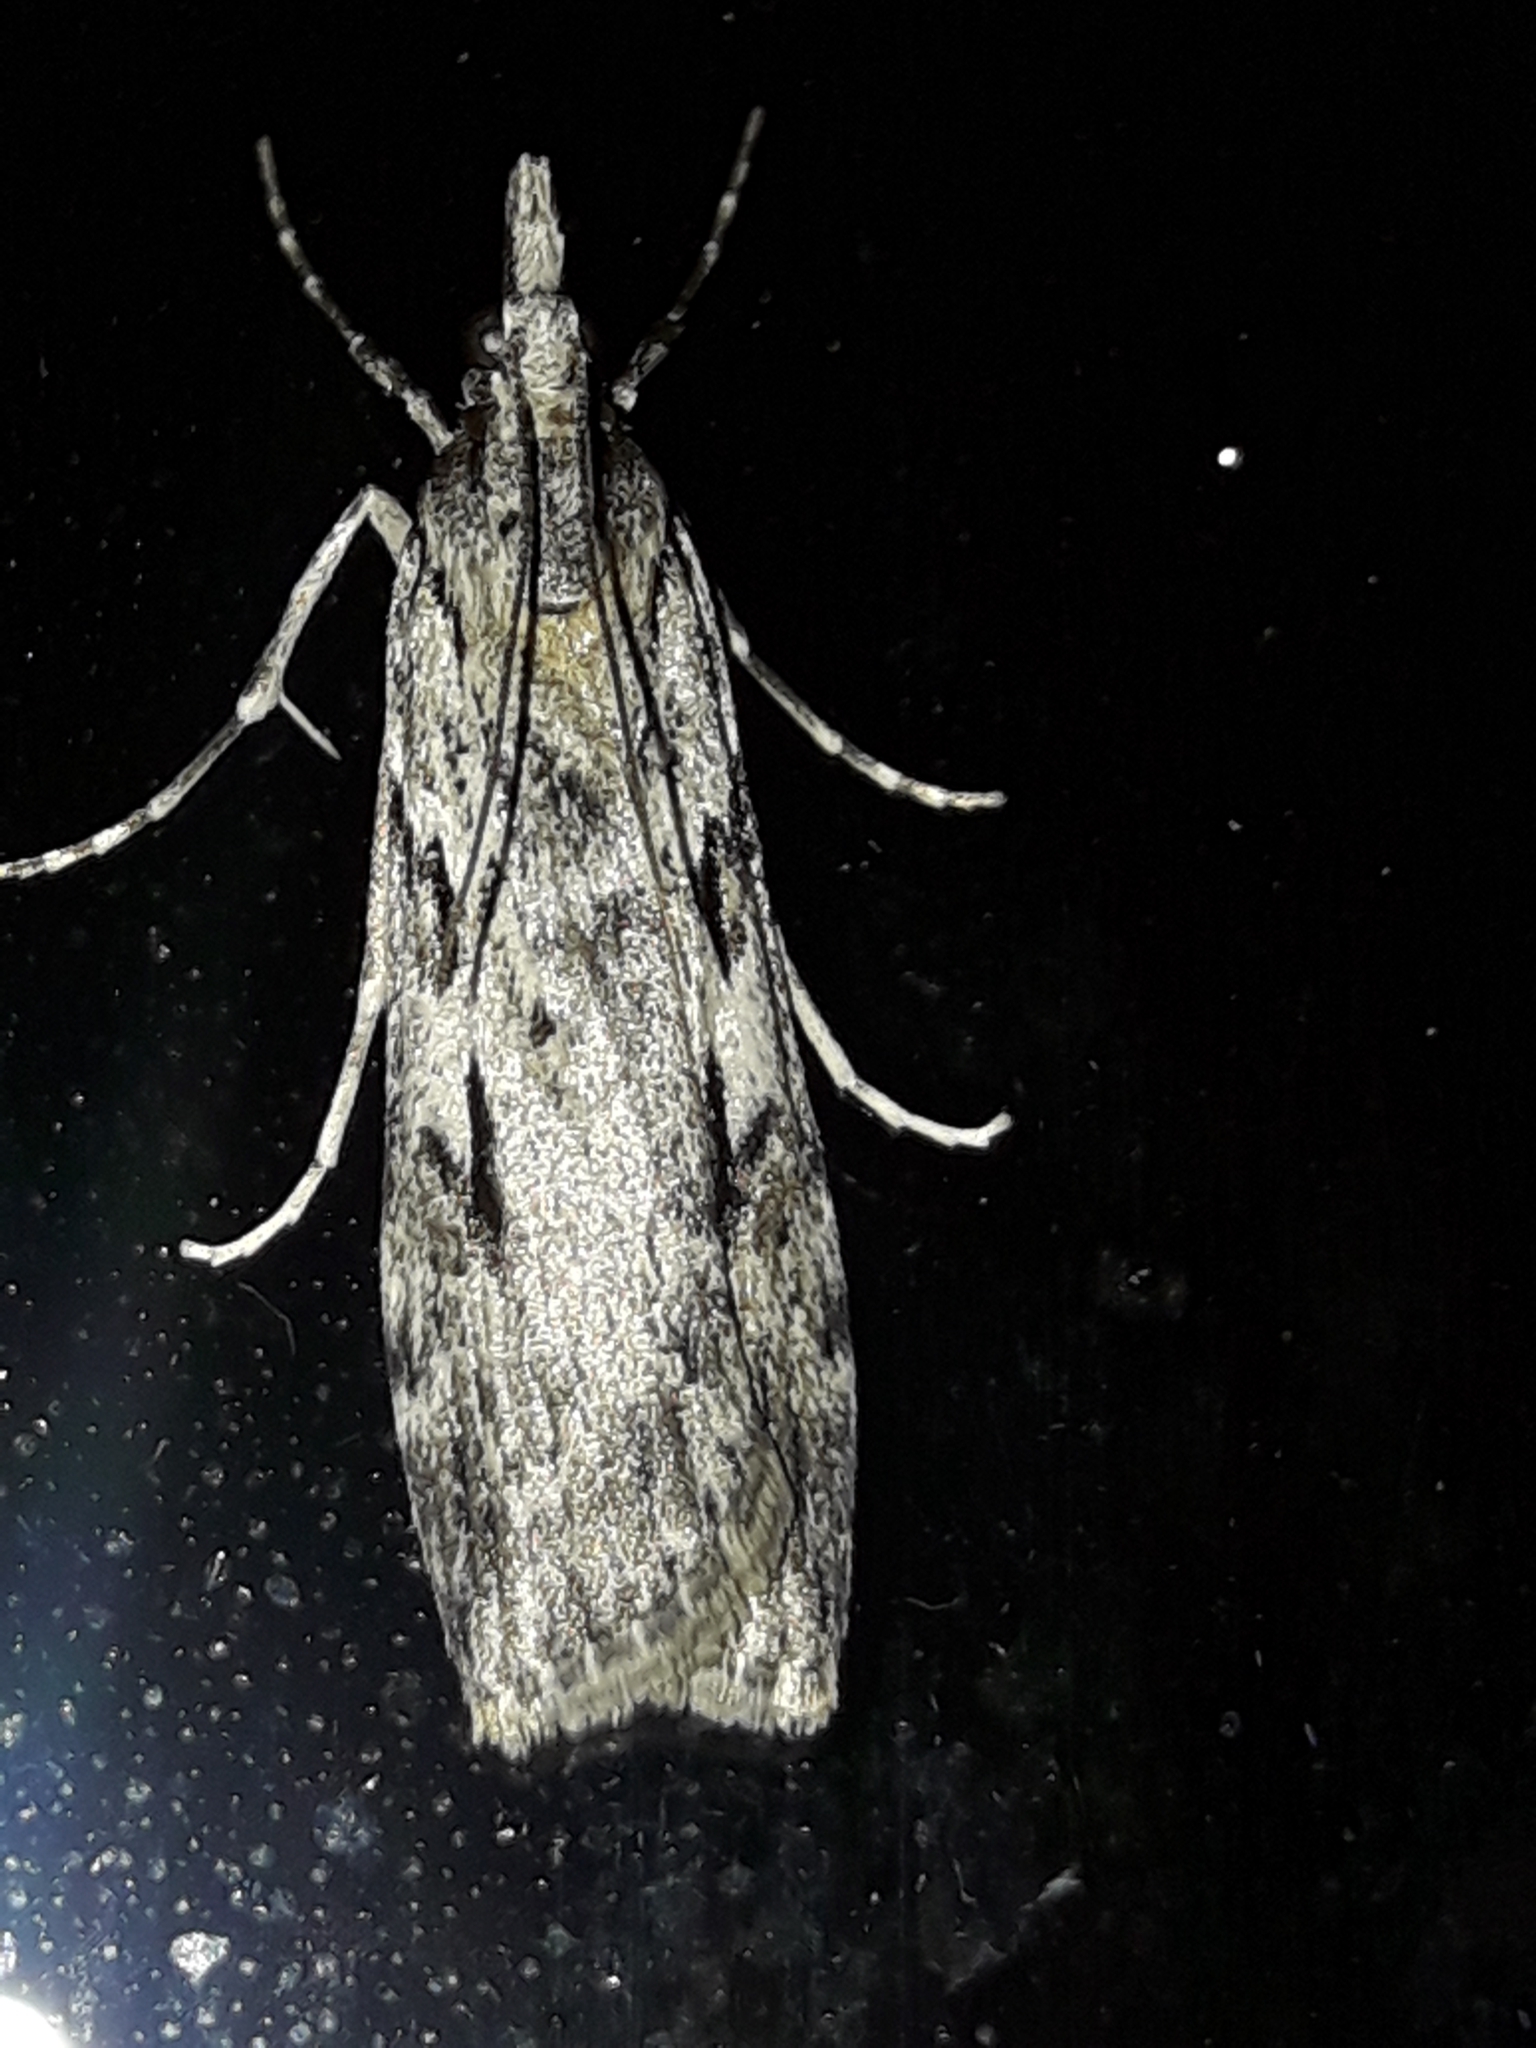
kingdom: Animalia
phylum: Arthropoda
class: Insecta
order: Lepidoptera
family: Crambidae
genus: Scoparia
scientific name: Scoparia halopis
